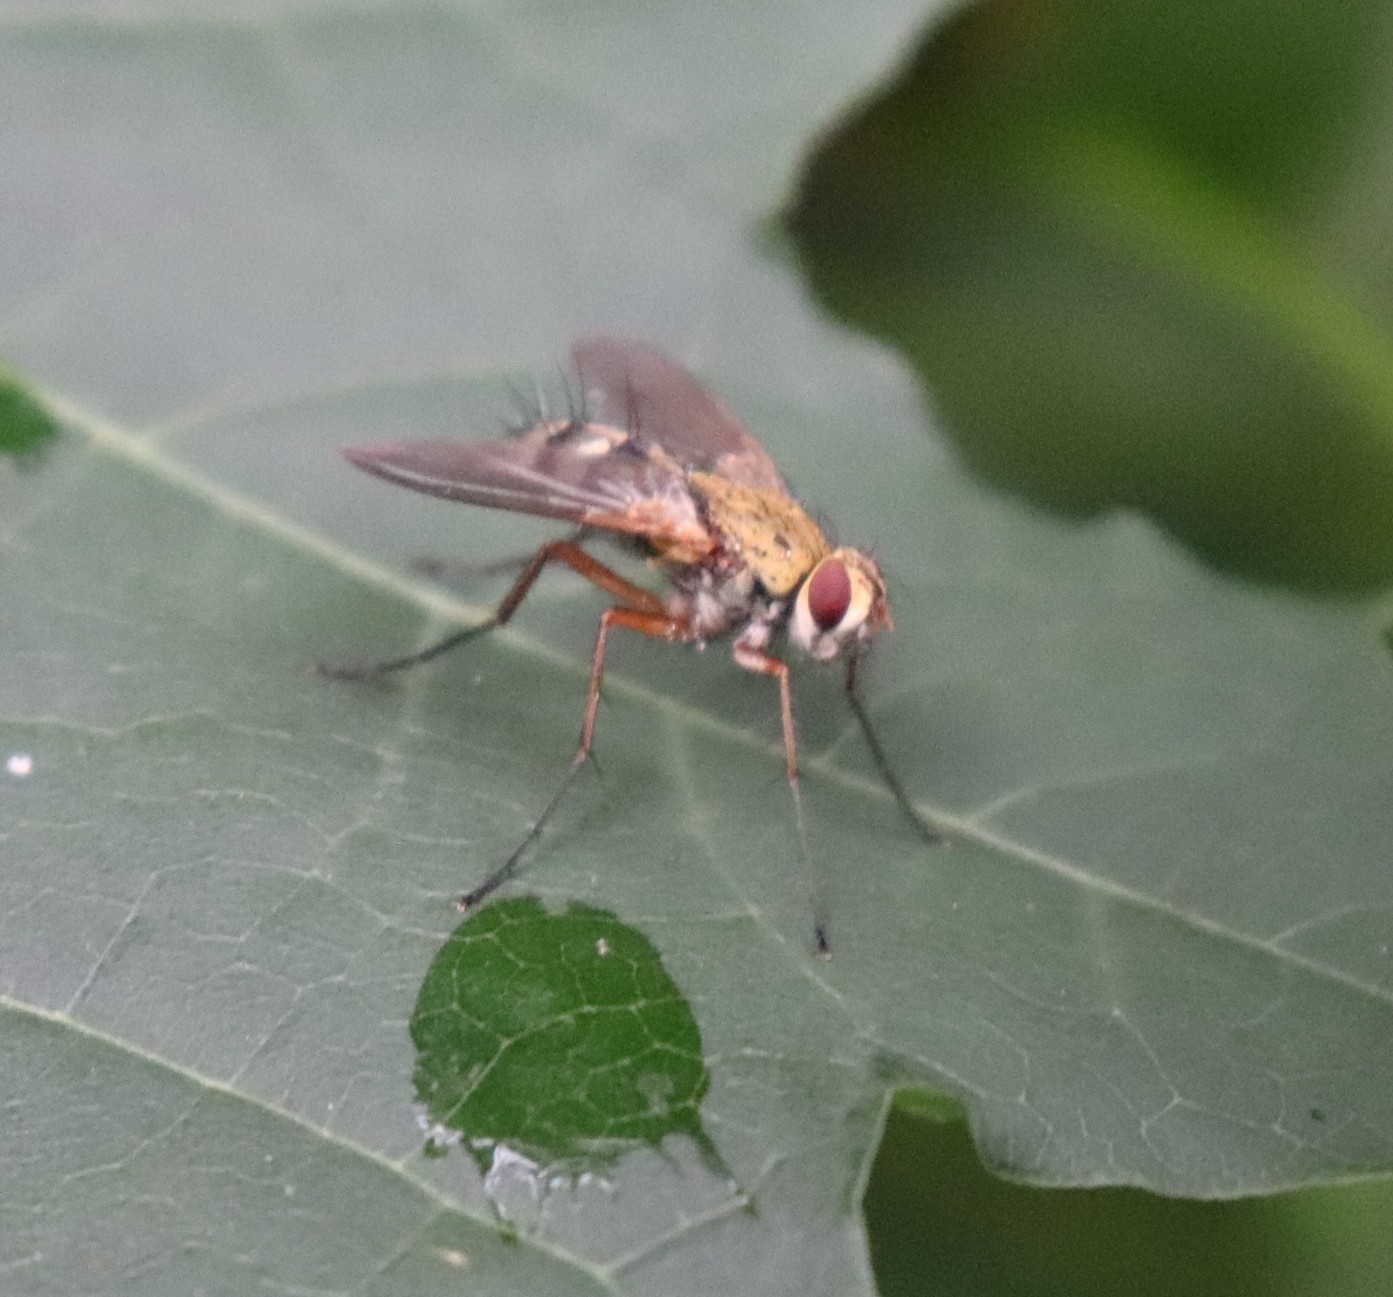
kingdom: Animalia
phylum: Arthropoda
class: Insecta
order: Diptera
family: Tachinidae
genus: Dexiosoma
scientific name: Dexiosoma caninum
